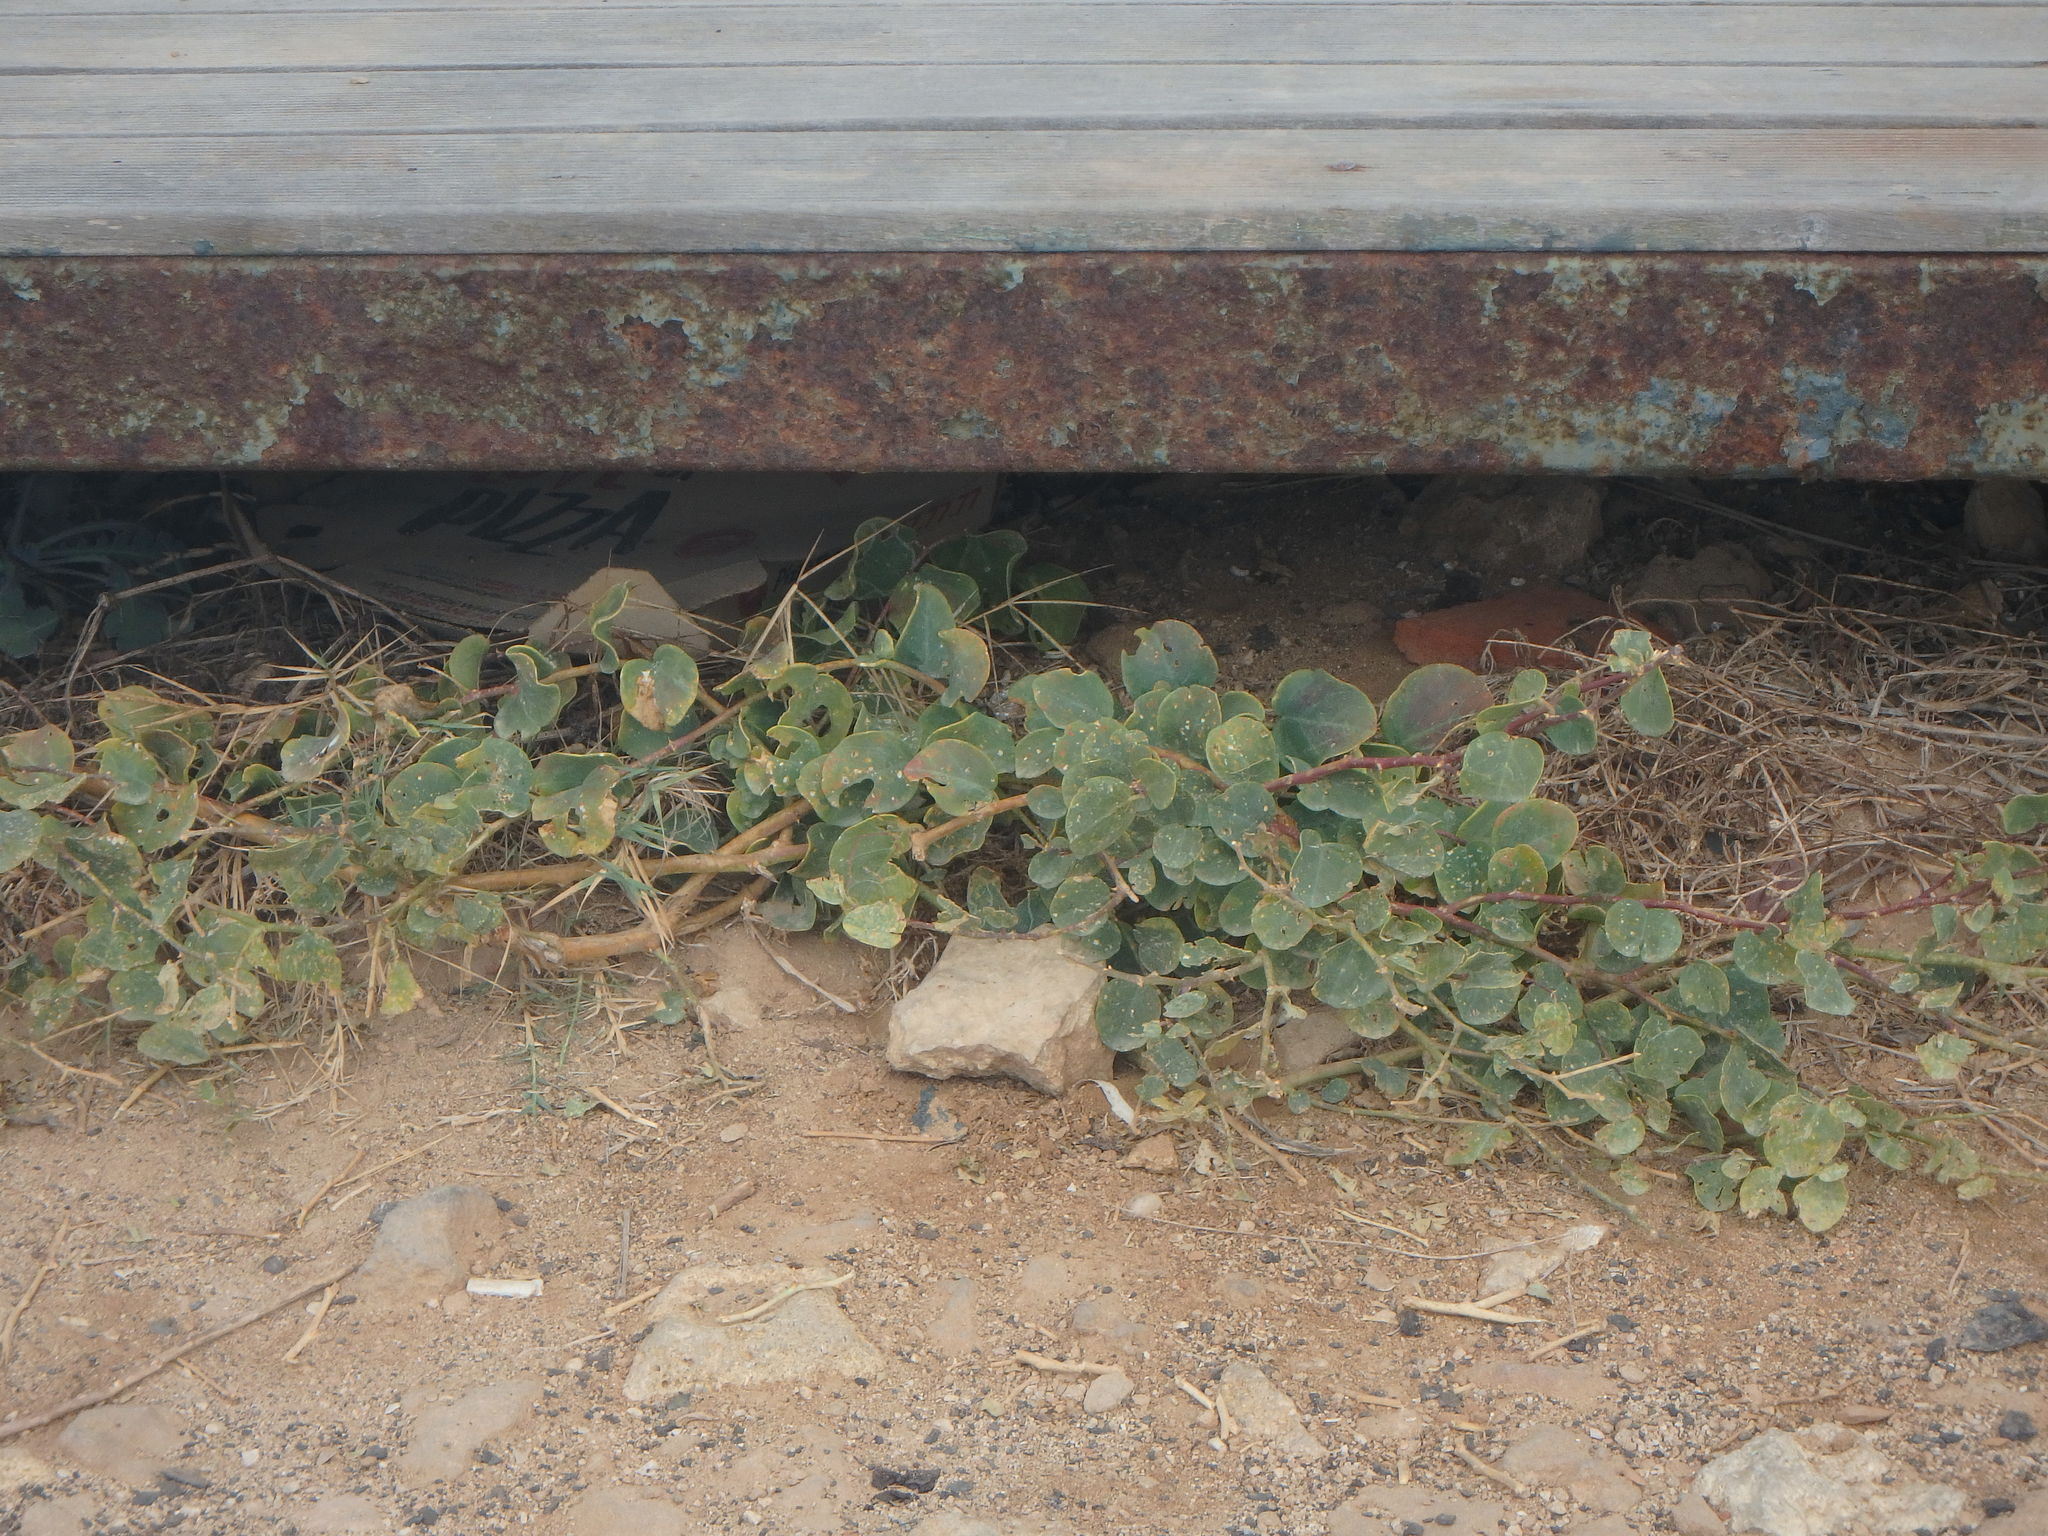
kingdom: Plantae
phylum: Tracheophyta
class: Magnoliopsida
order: Brassicales
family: Capparaceae
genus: Capparis
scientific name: Capparis spinosa
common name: Caper
